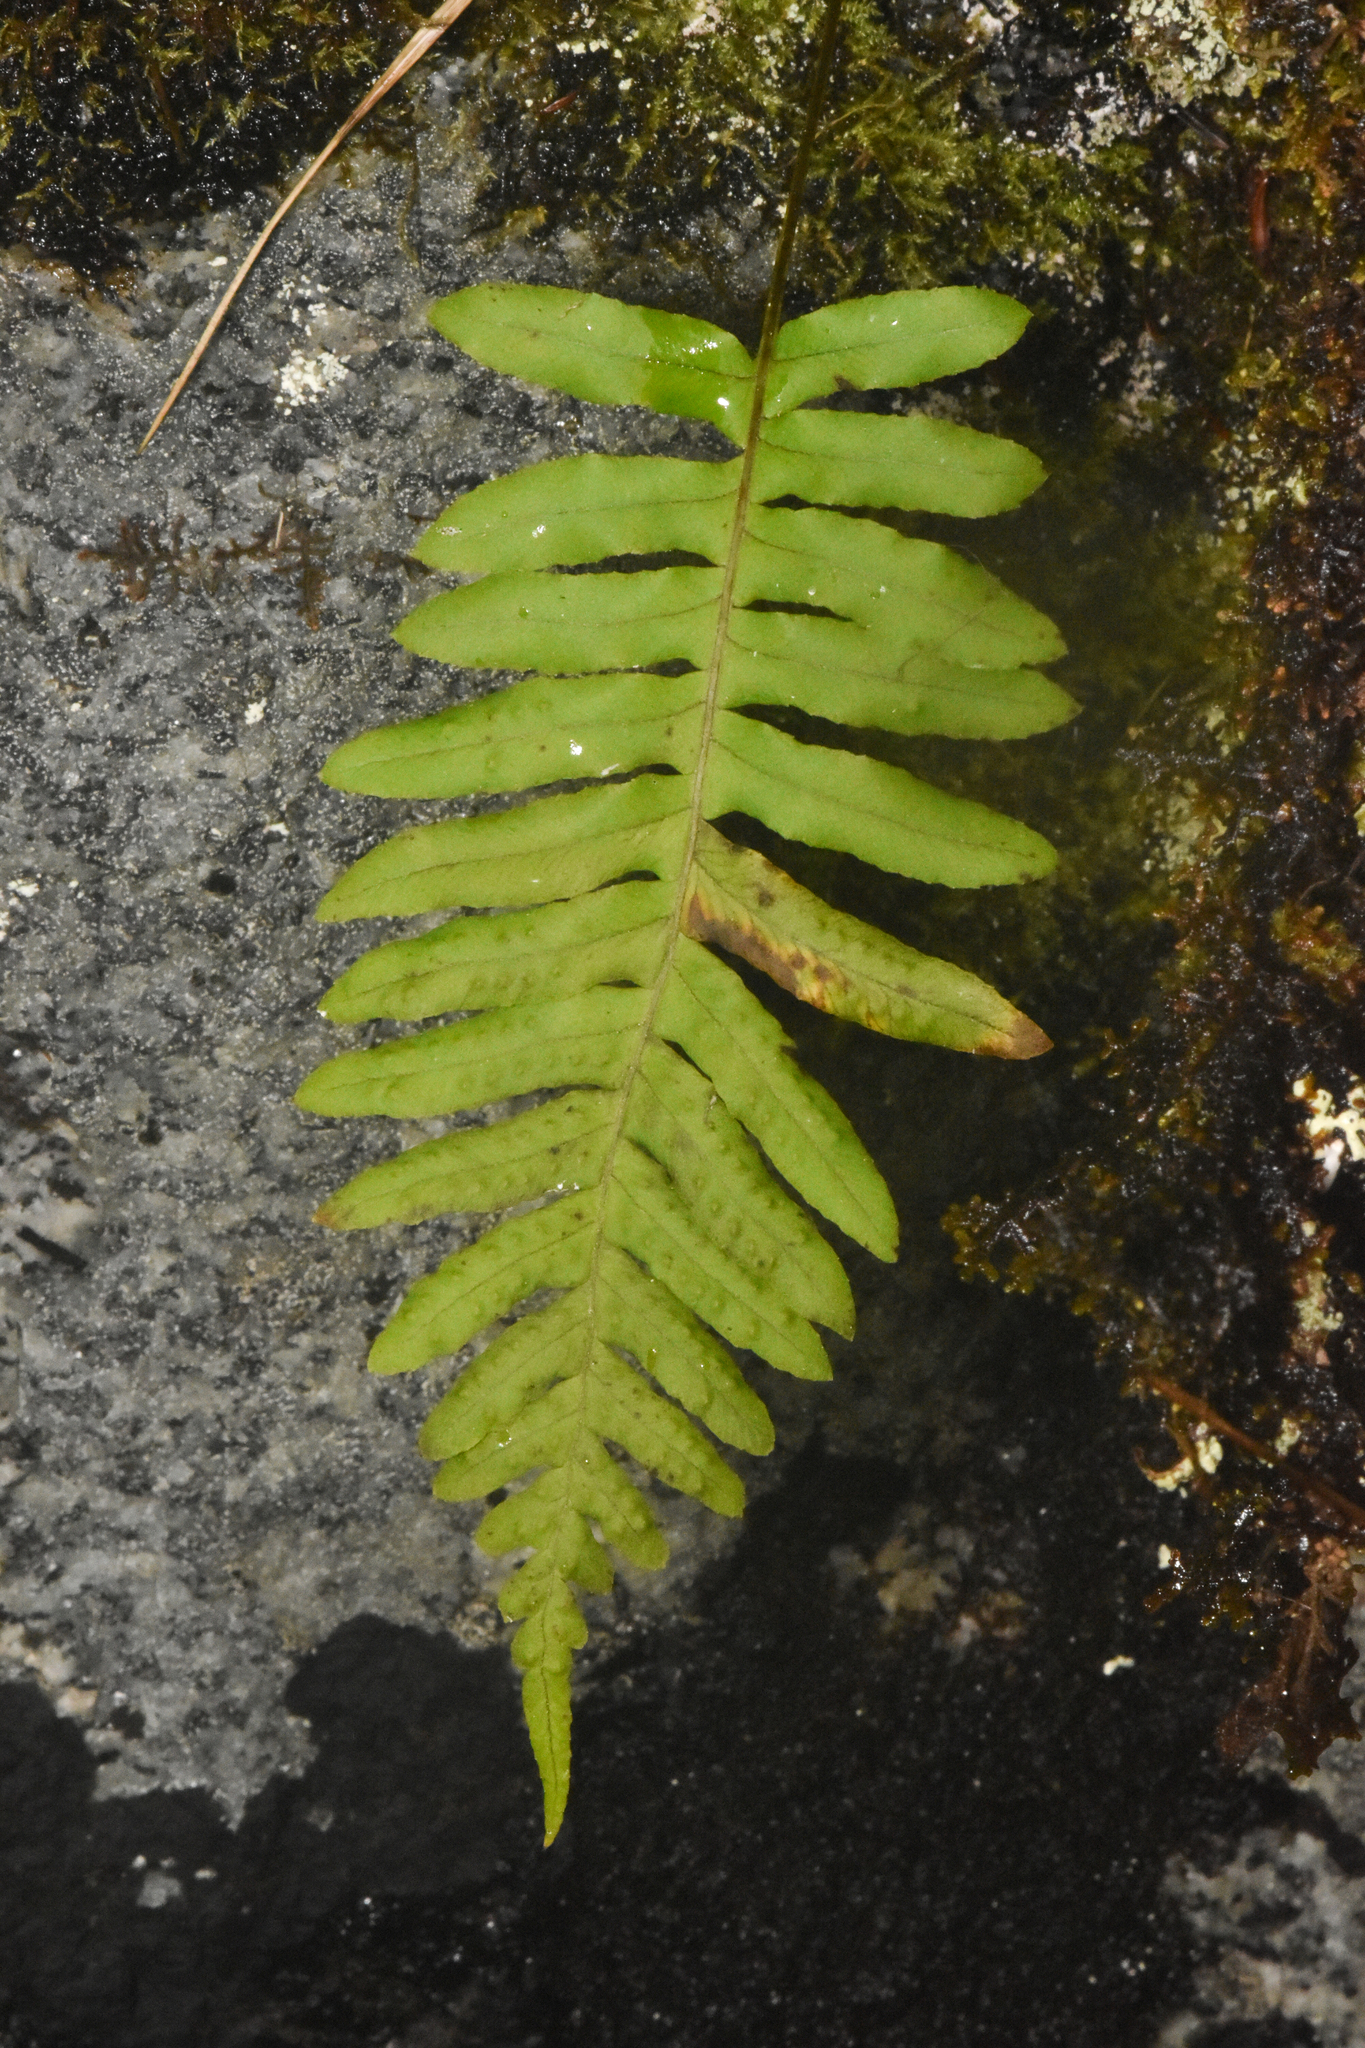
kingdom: Plantae
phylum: Tracheophyta
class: Polypodiopsida
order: Polypodiales
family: Polypodiaceae
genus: Polypodium
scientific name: Polypodium glycyrrhiza
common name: Licorice fern
